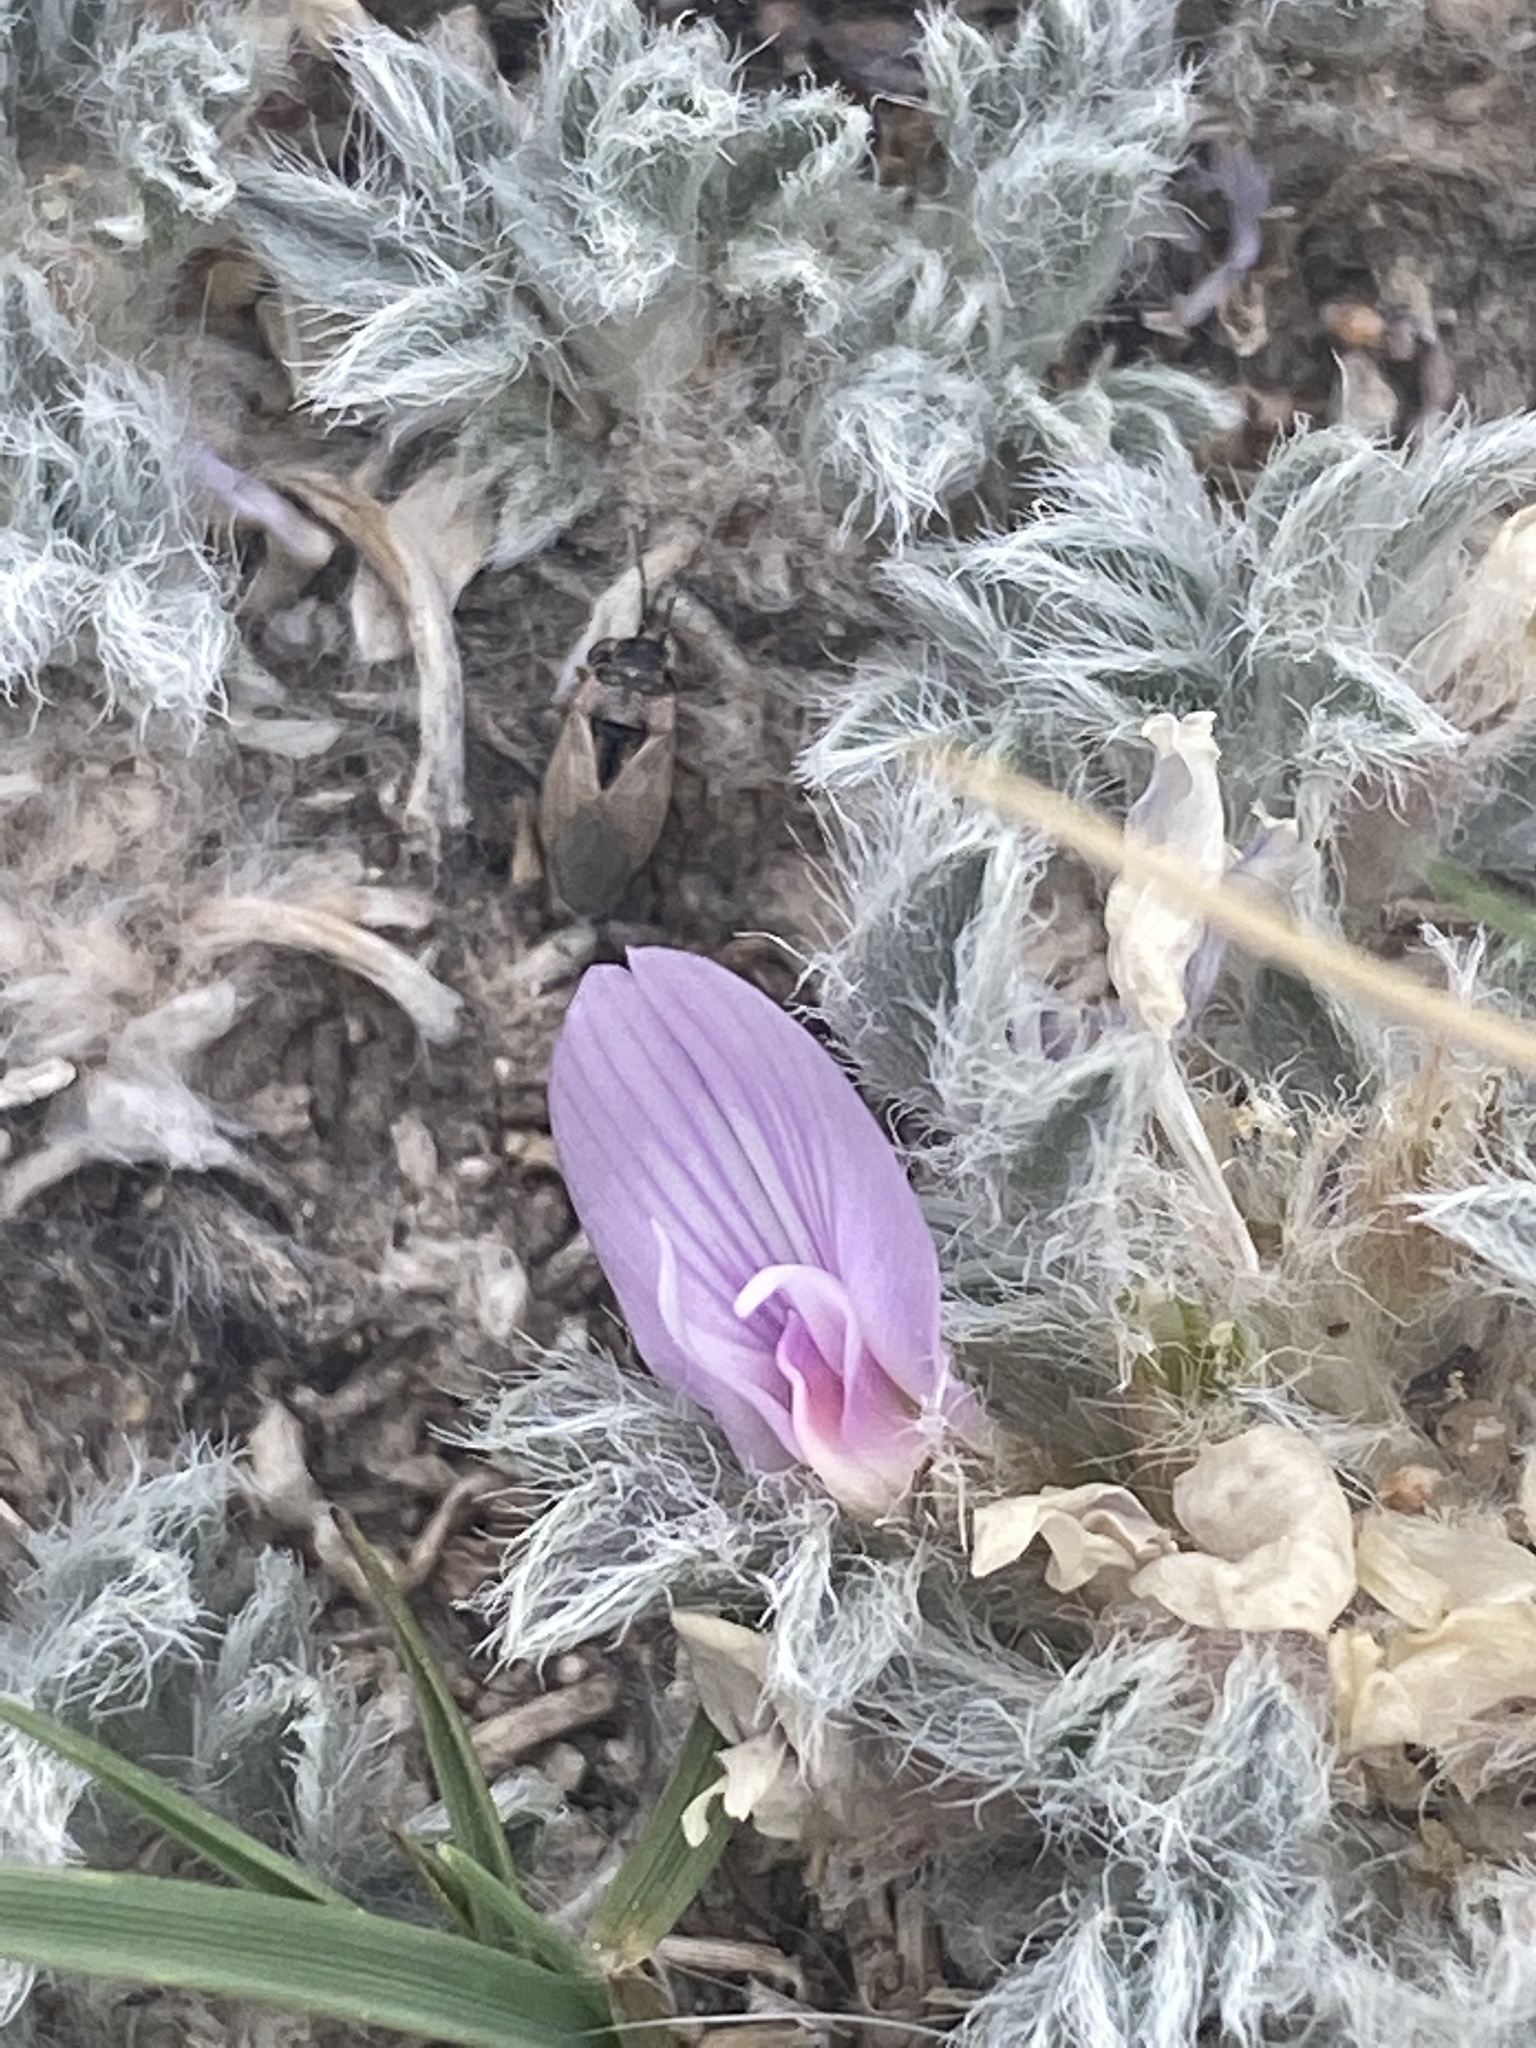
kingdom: Plantae
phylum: Tracheophyta
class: Magnoliopsida
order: Fabales
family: Fabaceae
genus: Astragalus
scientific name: Astragalus tridactylicus
